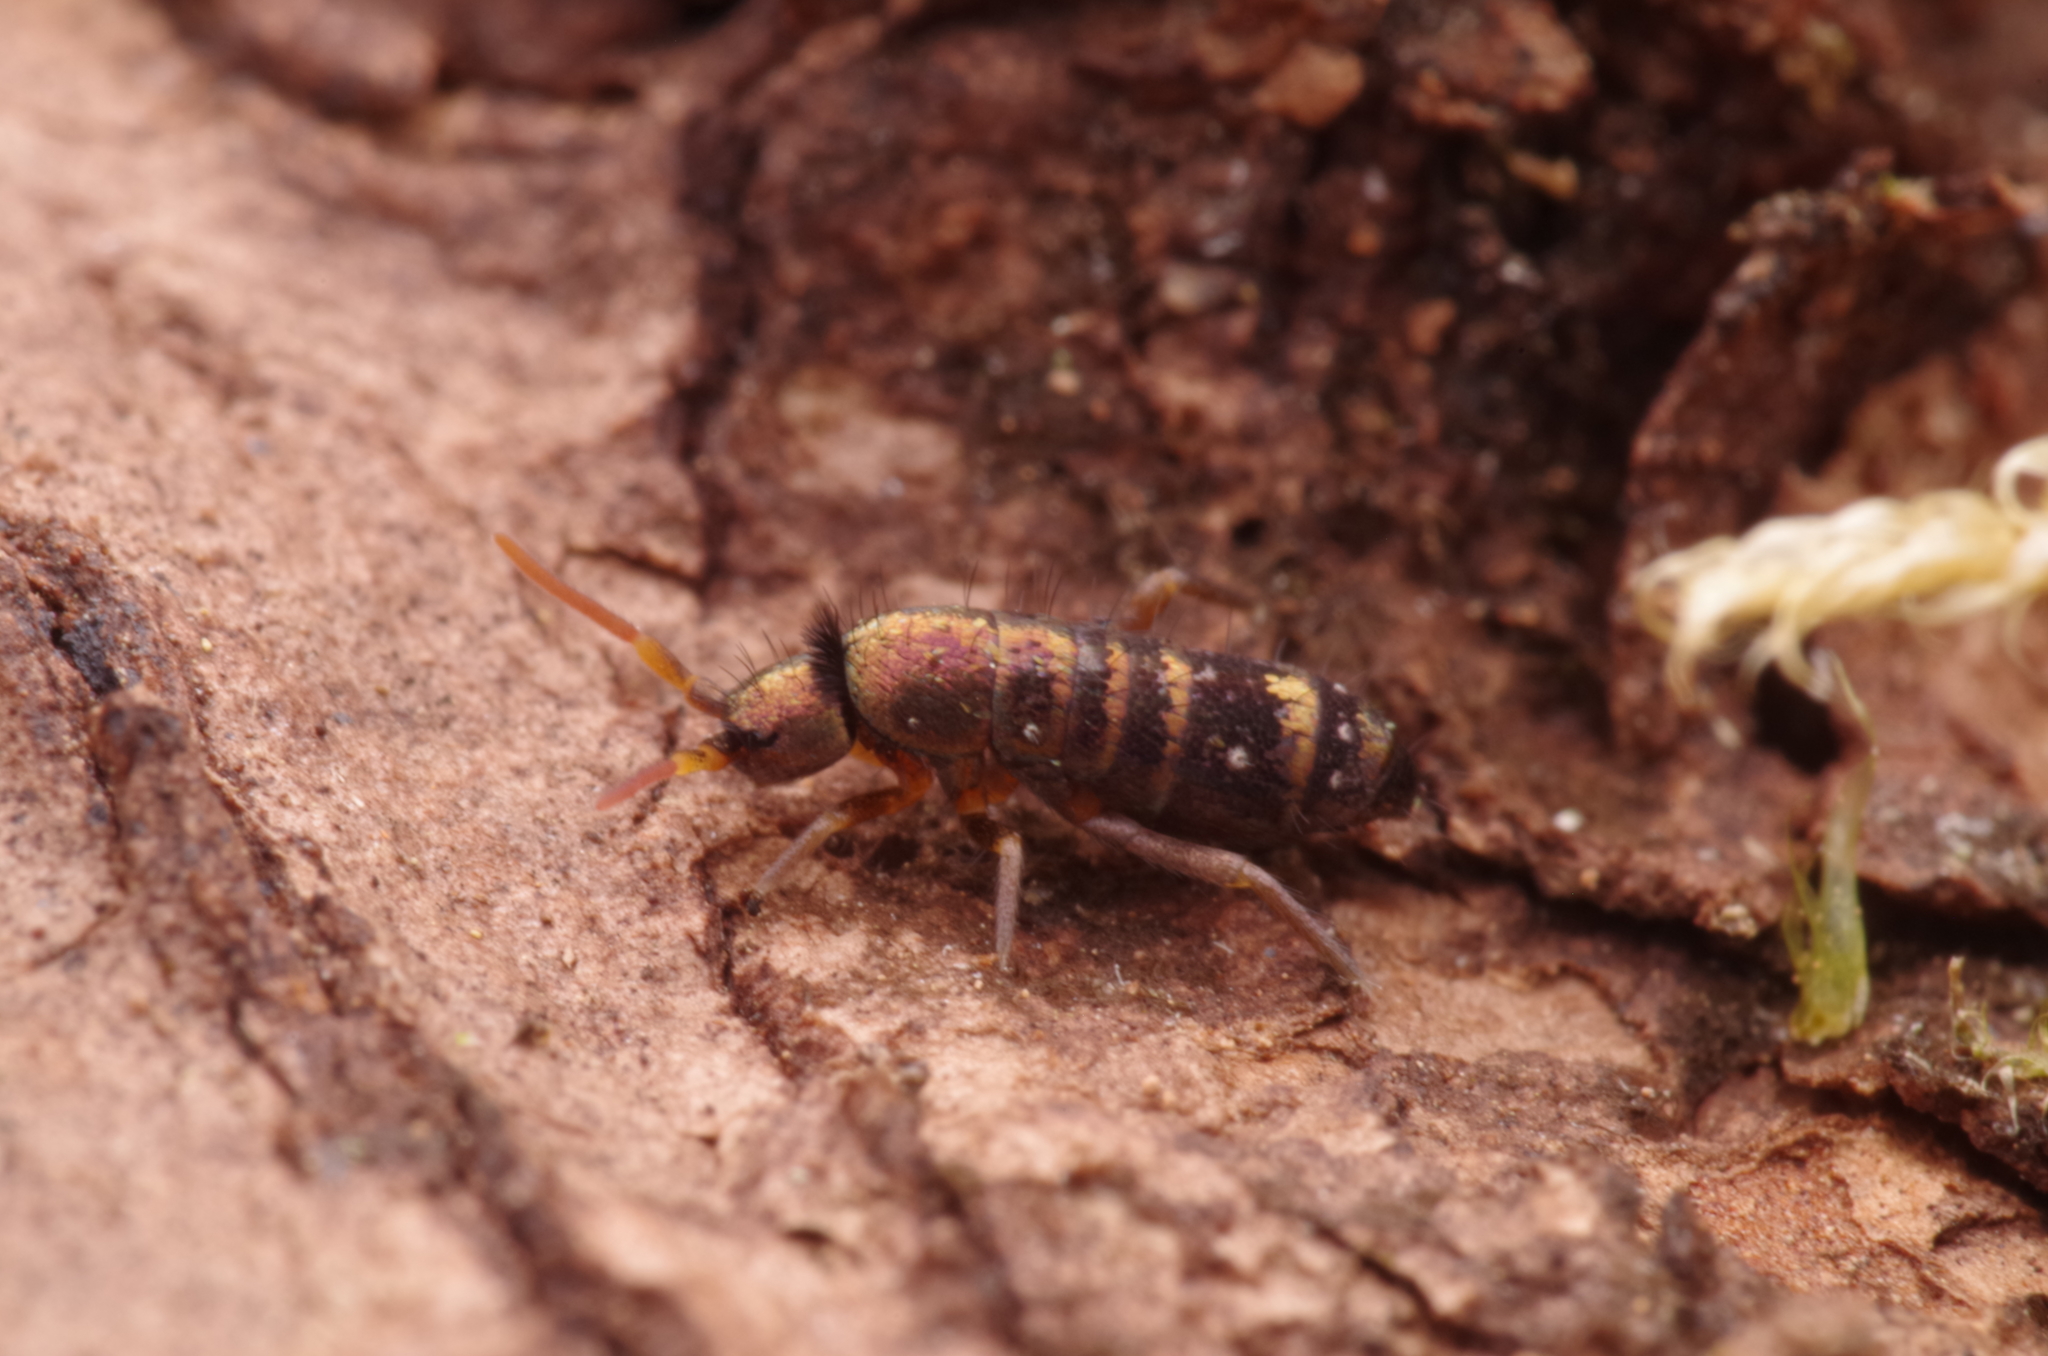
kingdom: Animalia
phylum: Arthropoda
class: Collembola
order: Entomobryomorpha
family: Tomoceridae
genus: Tomocerus
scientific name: Tomocerus vulgaris
